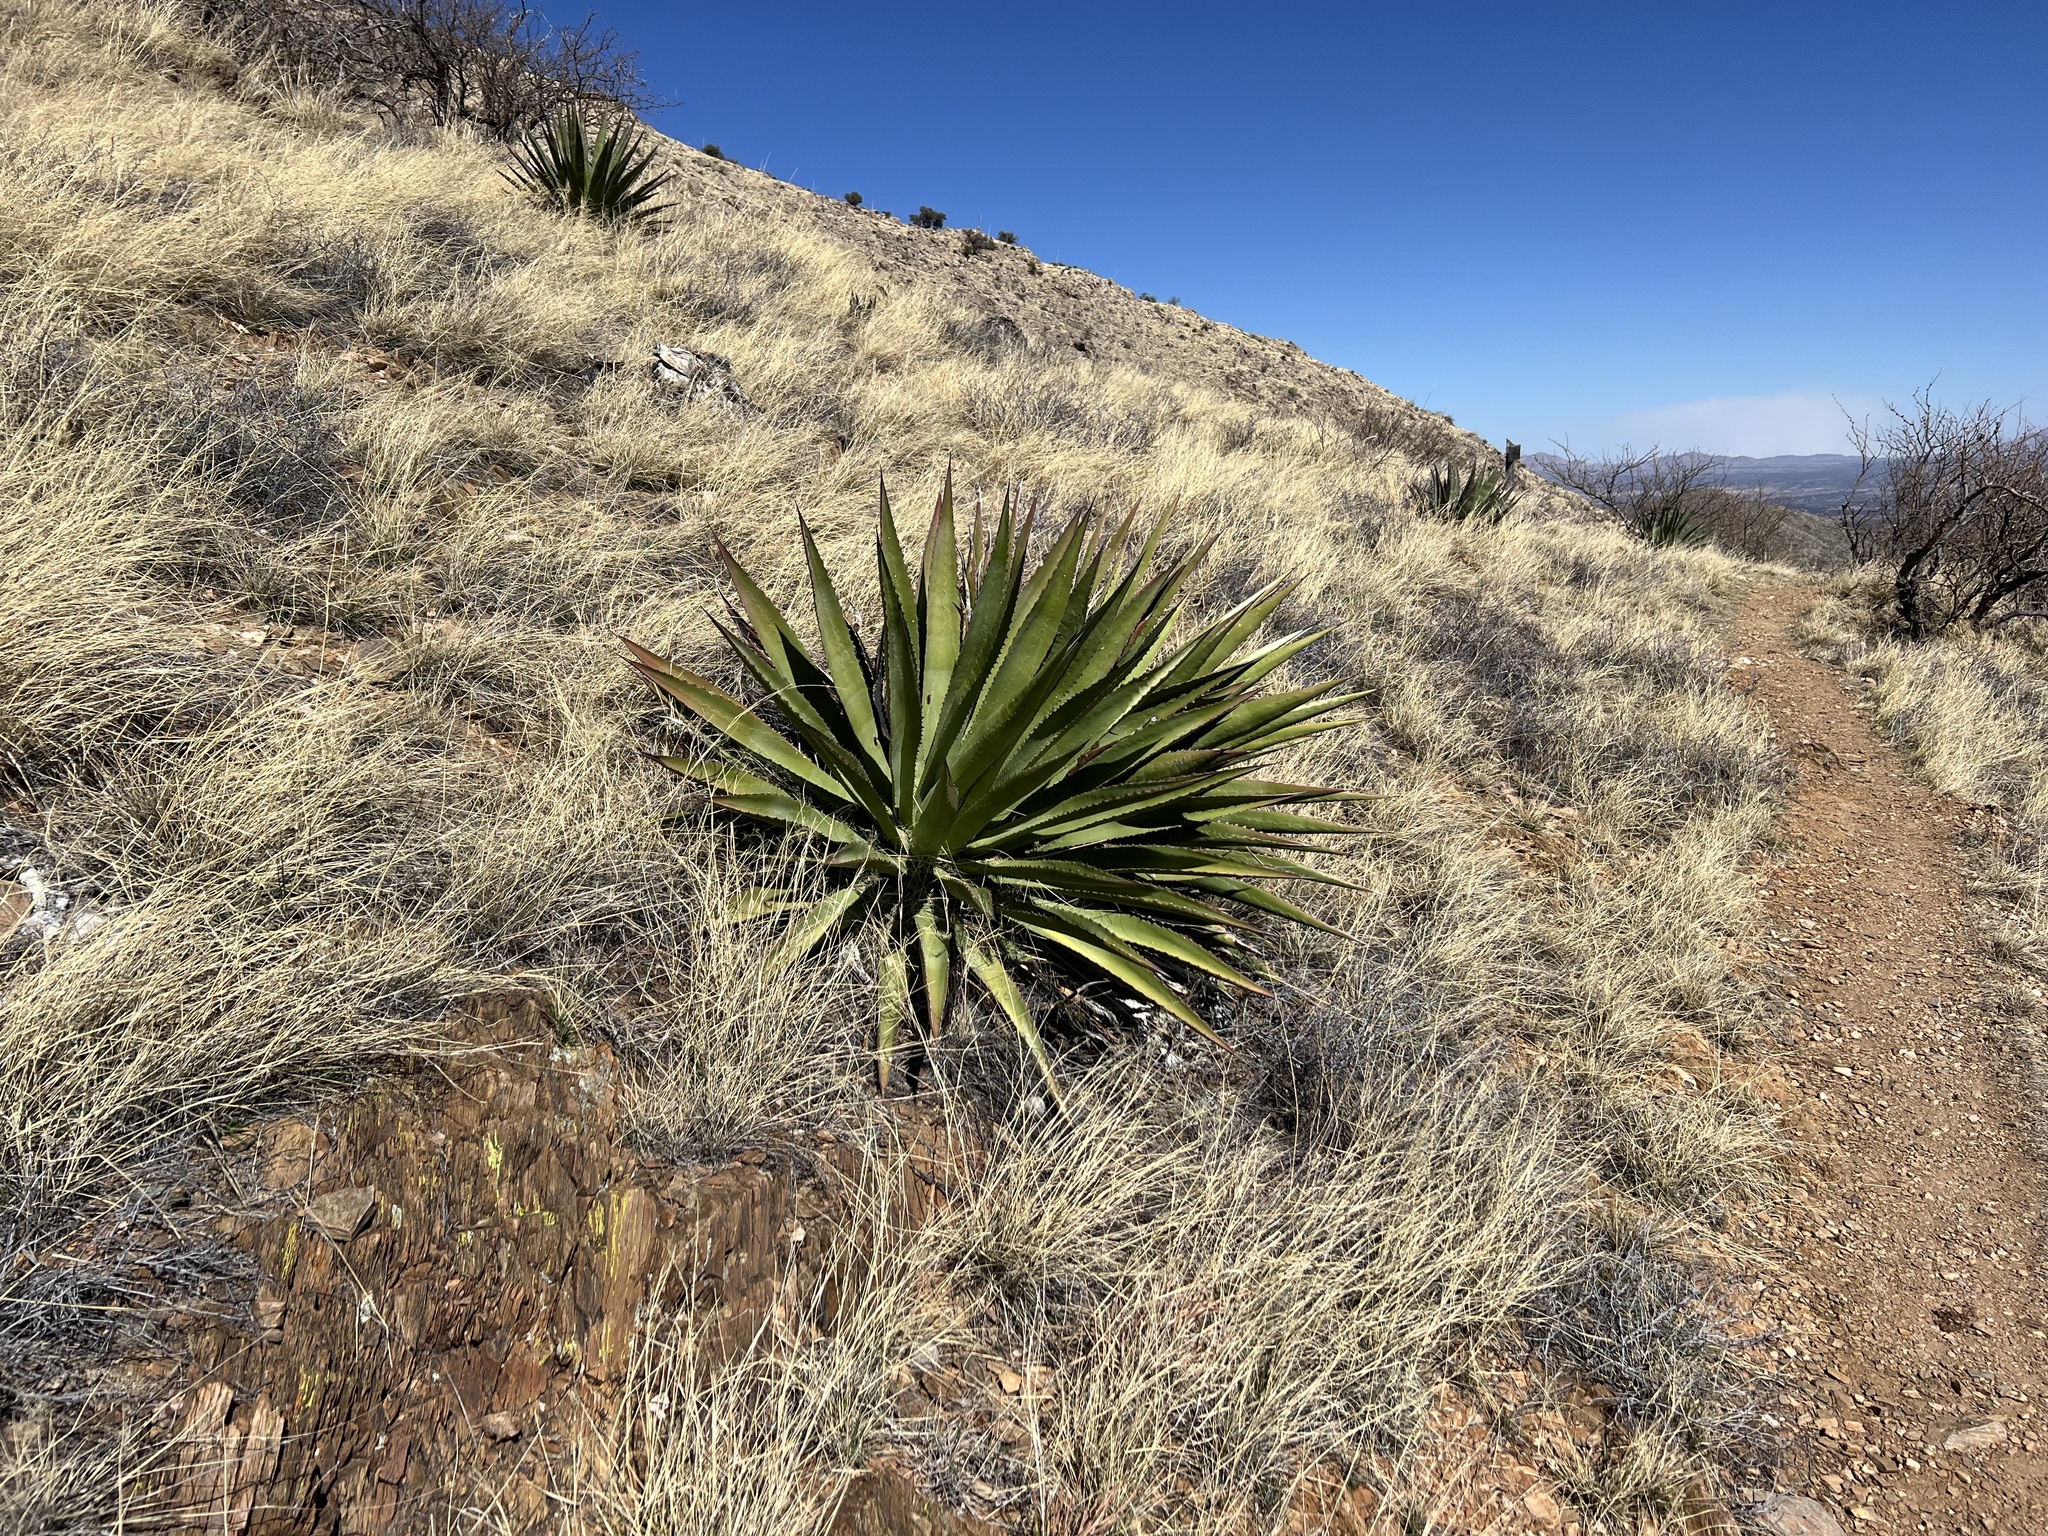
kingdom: Plantae
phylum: Tracheophyta
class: Liliopsida
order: Asparagales
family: Asparagaceae
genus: Agave
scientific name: Agave palmeri
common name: Palmer agave
